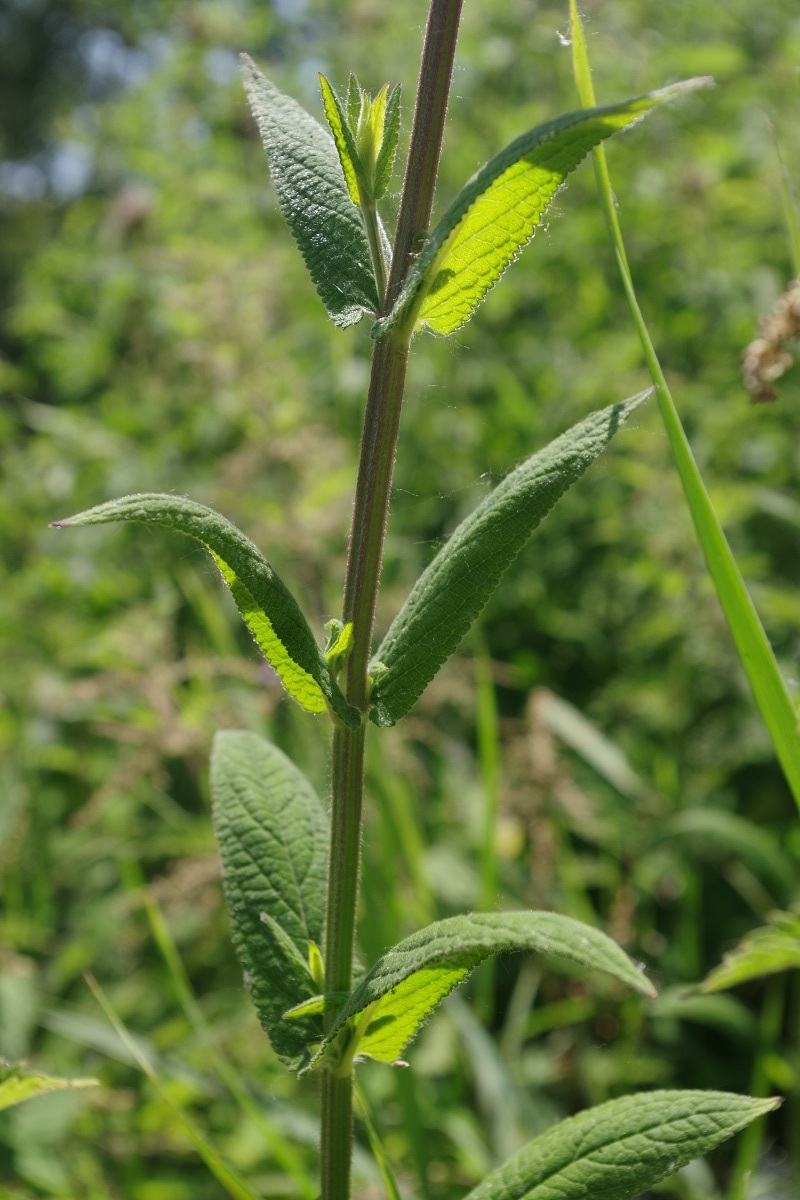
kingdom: Plantae
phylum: Tracheophyta
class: Magnoliopsida
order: Lamiales
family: Lamiaceae
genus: Stachys
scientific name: Stachys palustris
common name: Marsh woundwort
